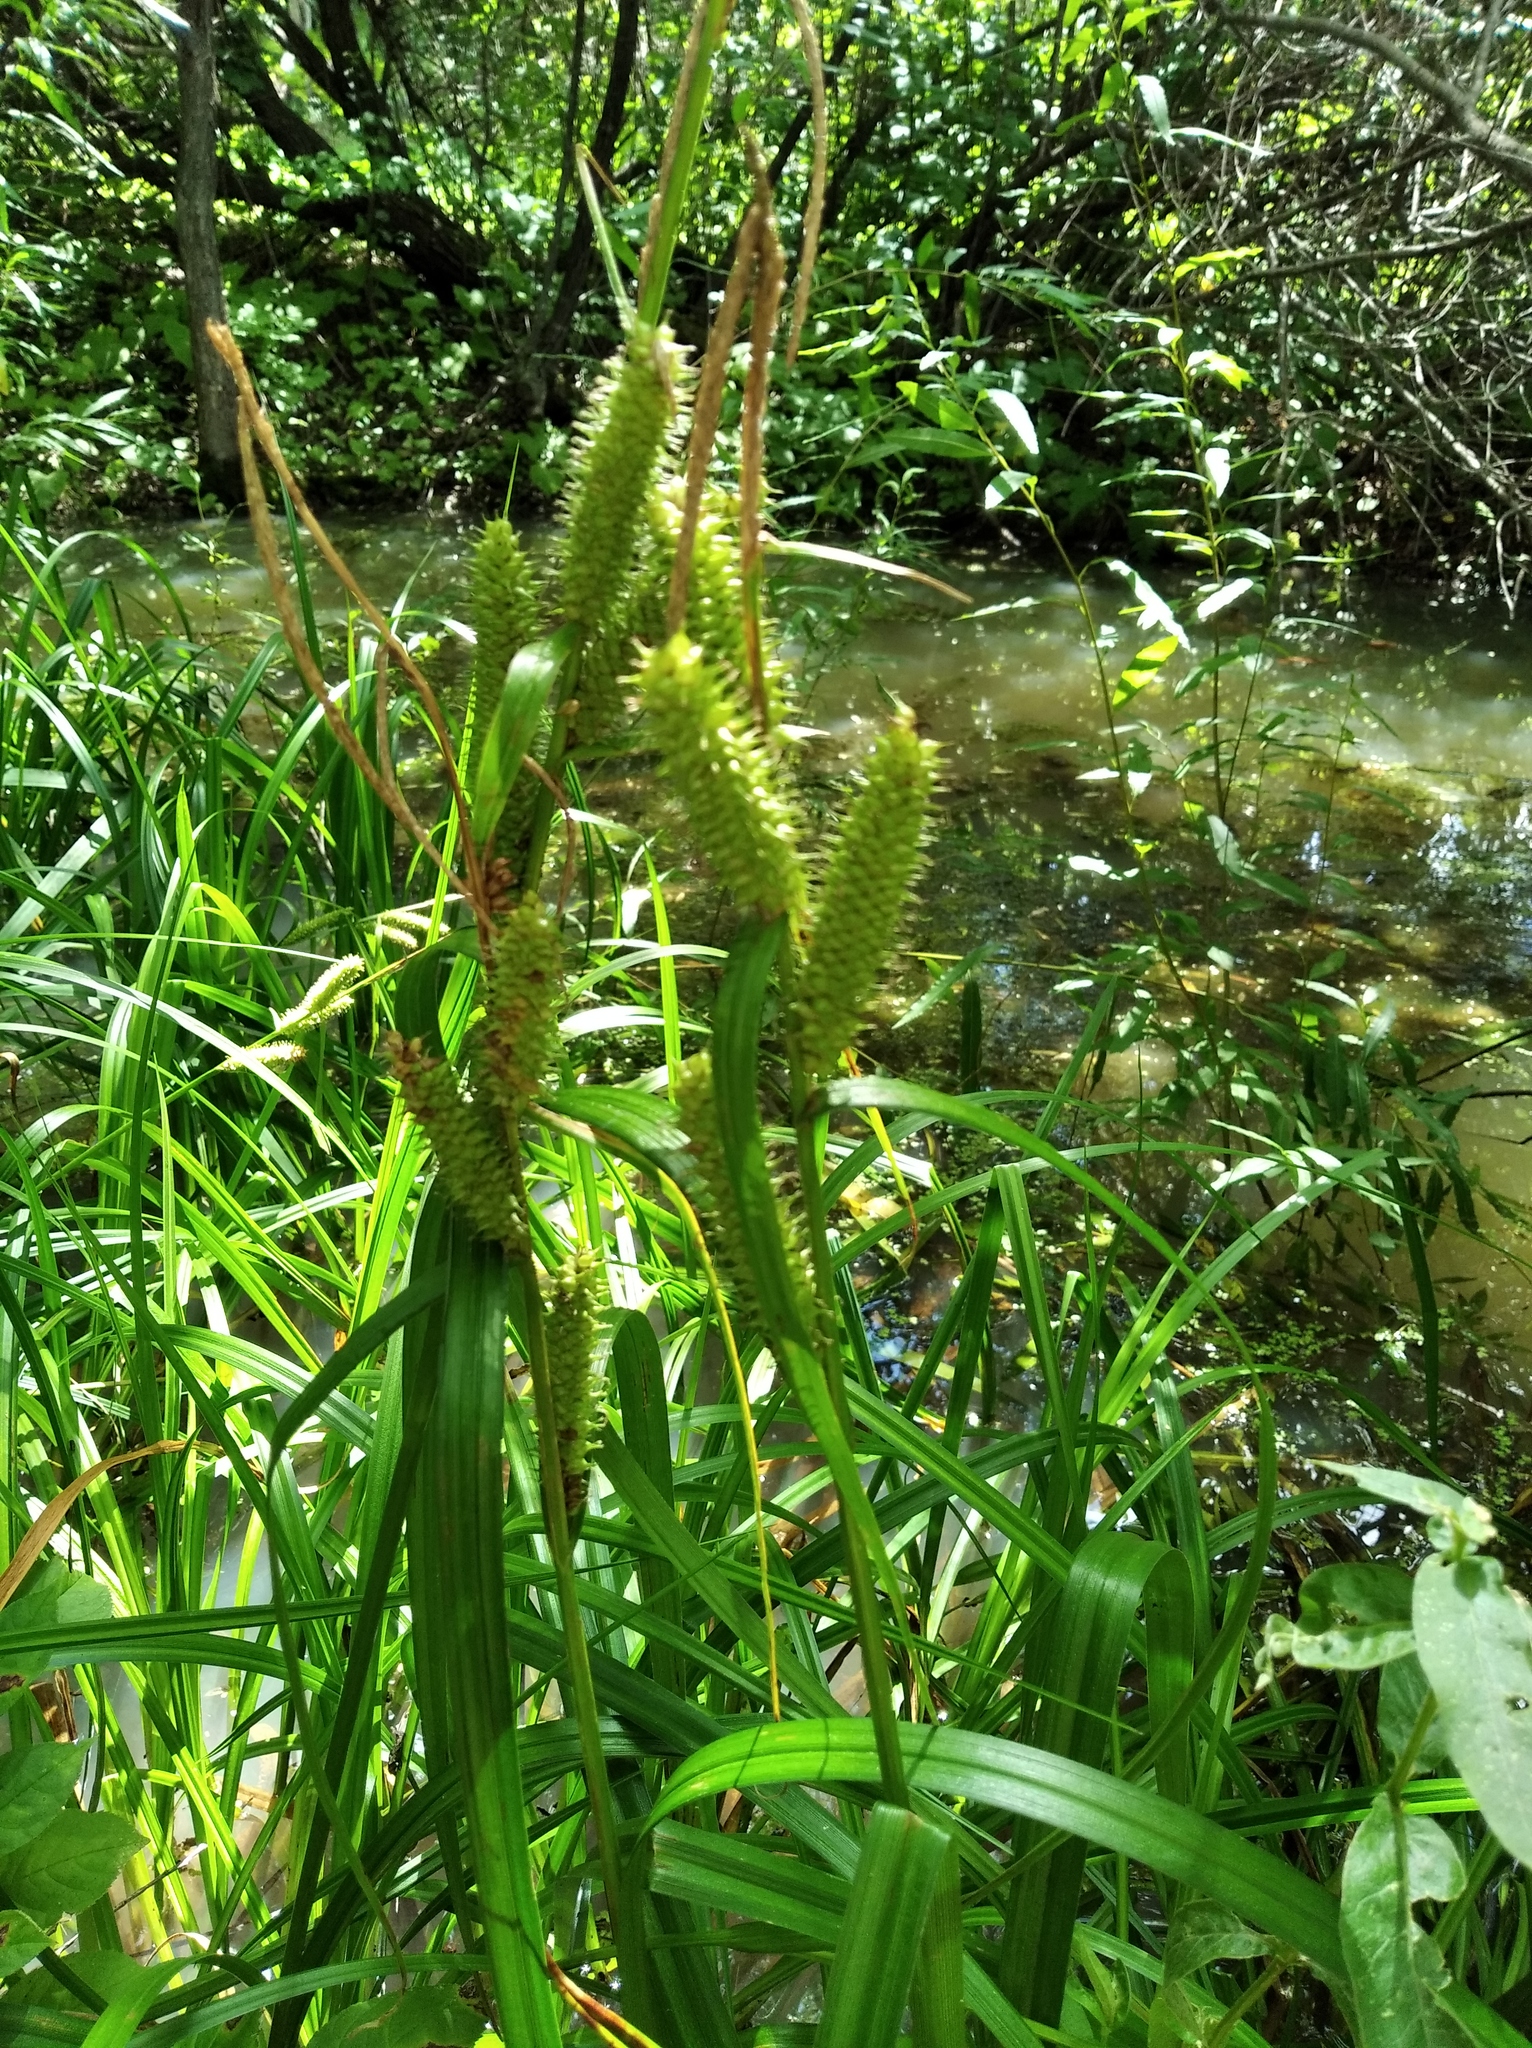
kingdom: Plantae
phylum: Tracheophyta
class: Liliopsida
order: Poales
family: Cyperaceae
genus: Carex
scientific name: Carex utriculata
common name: Beaked sedge
